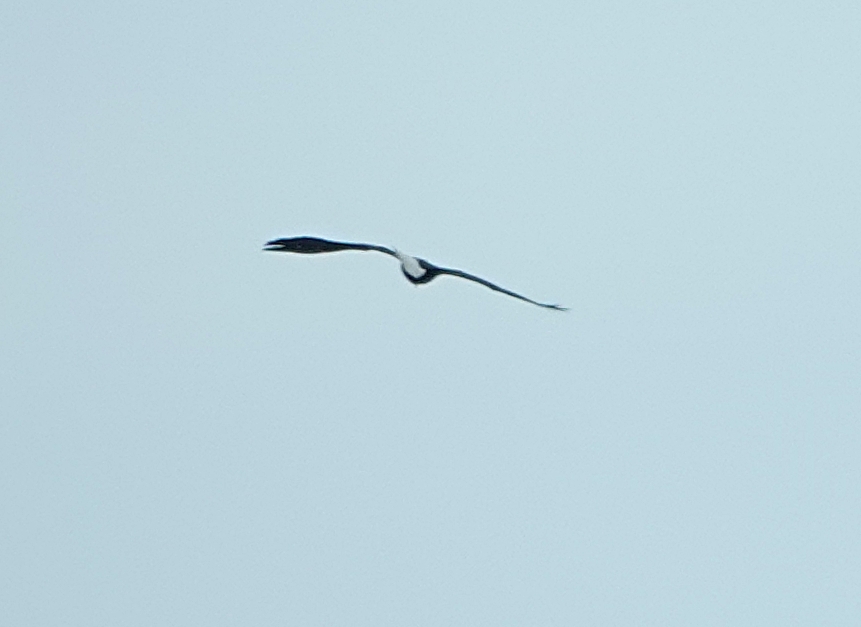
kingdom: Animalia
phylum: Chordata
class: Aves
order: Accipitriformes
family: Accipitridae
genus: Haliaeetus
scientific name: Haliaeetus leucocephalus
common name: Bald eagle
